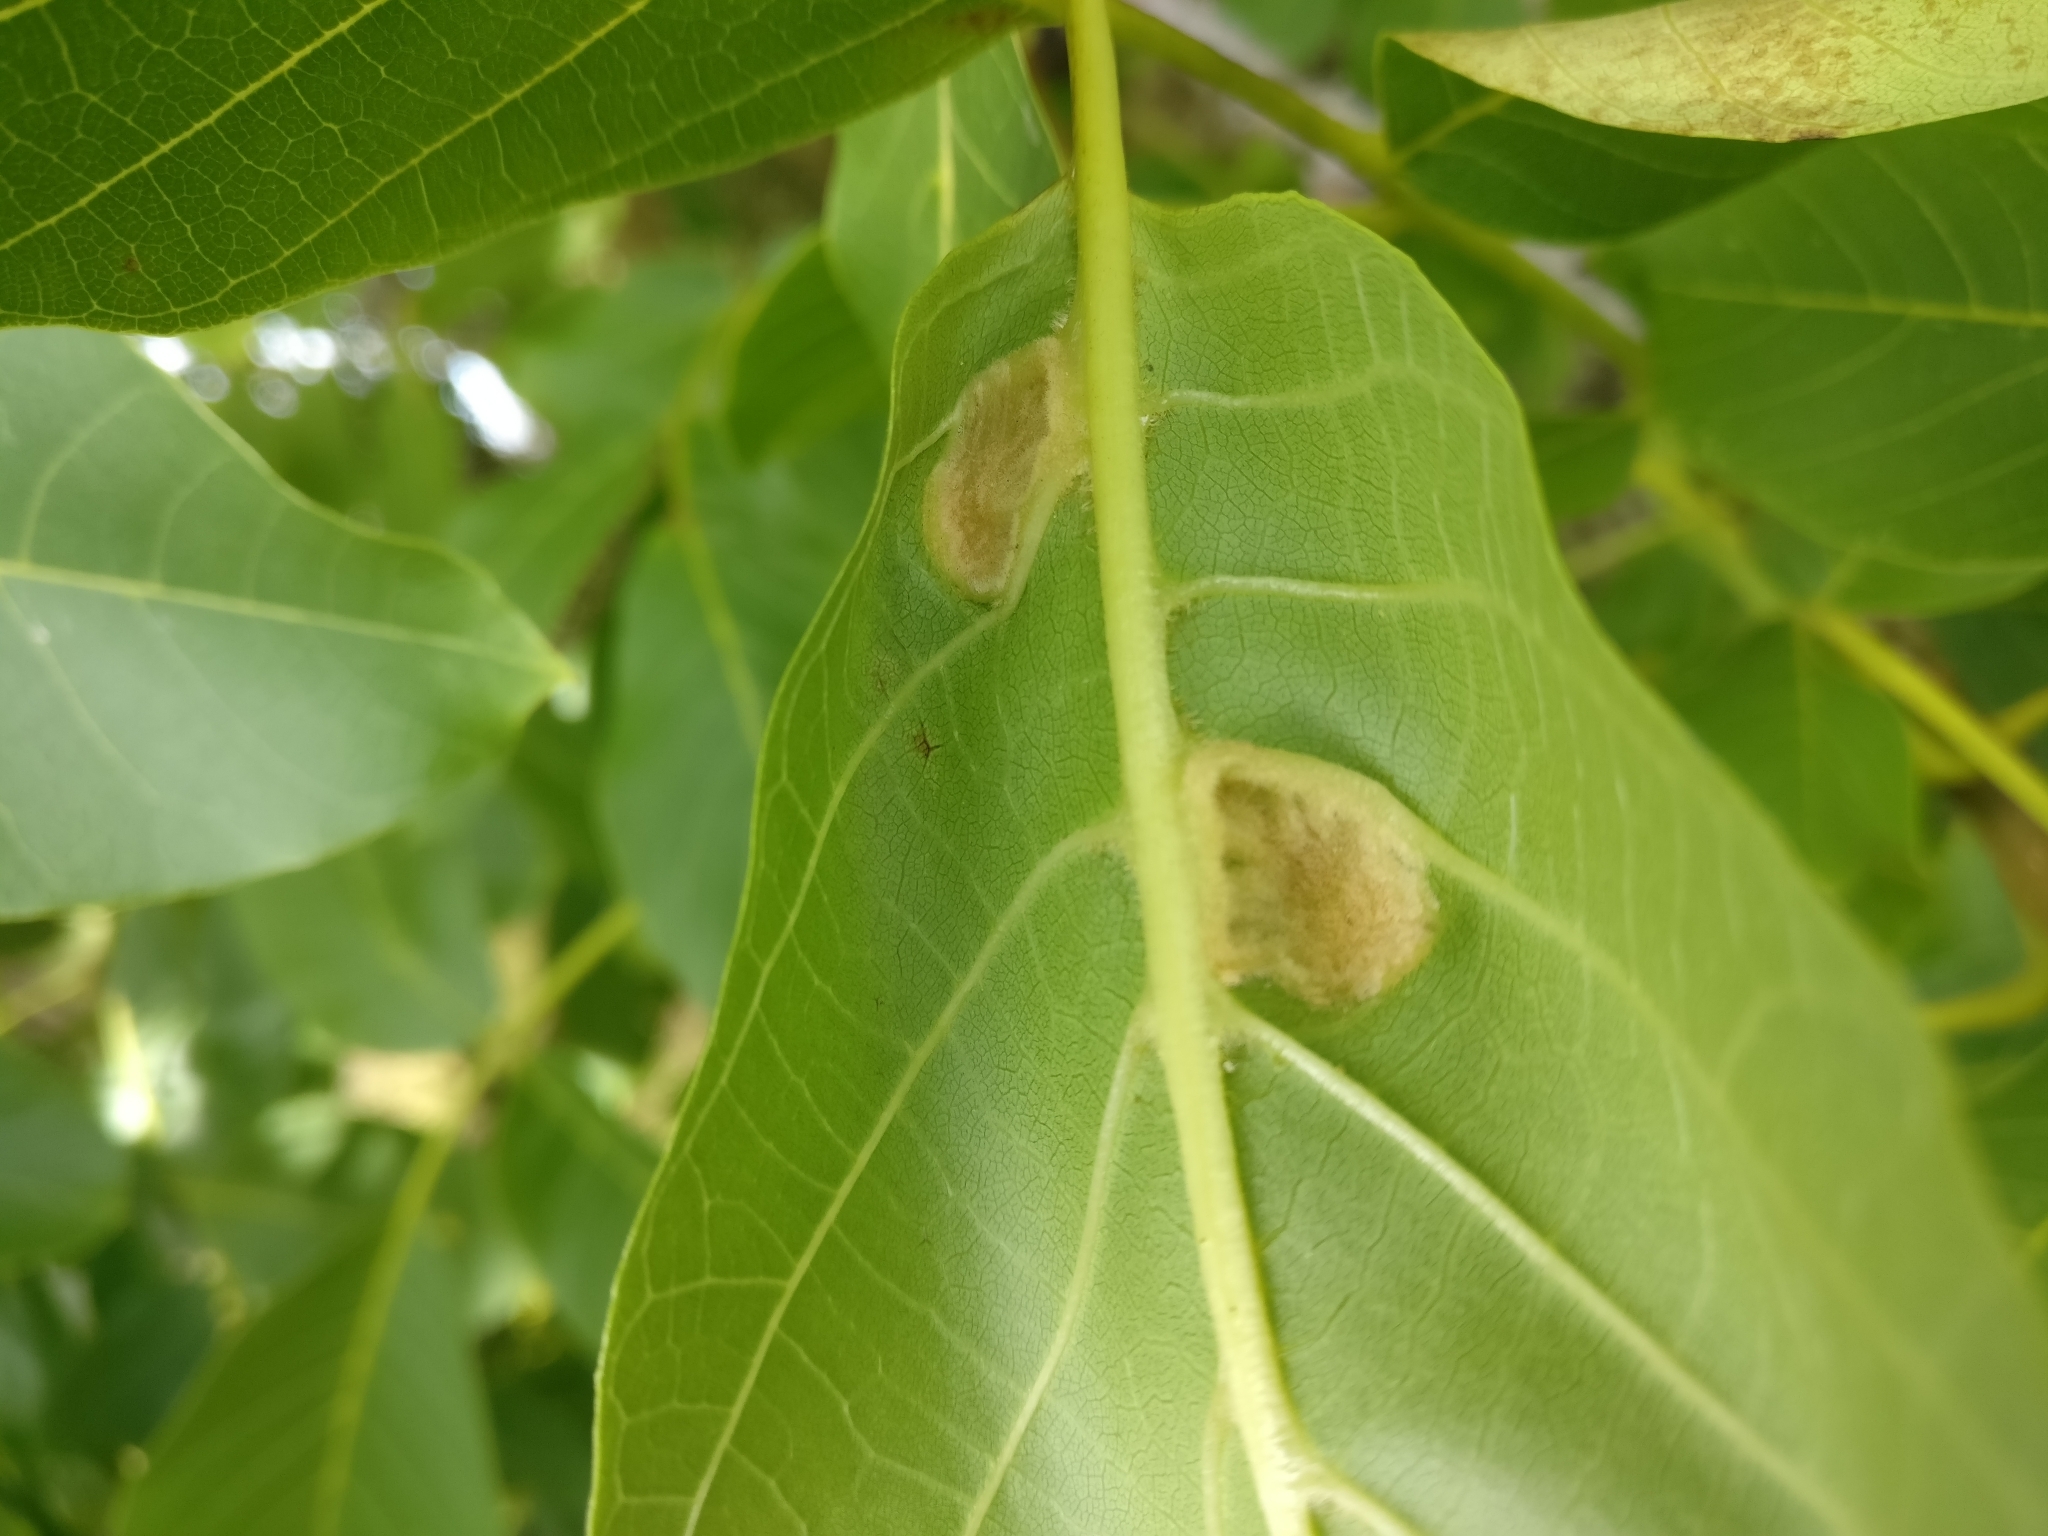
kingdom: Animalia
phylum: Arthropoda
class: Arachnida
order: Trombidiformes
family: Eriophyidae
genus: Aceria
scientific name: Aceria erinea
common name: Persian walnut erineum mite
